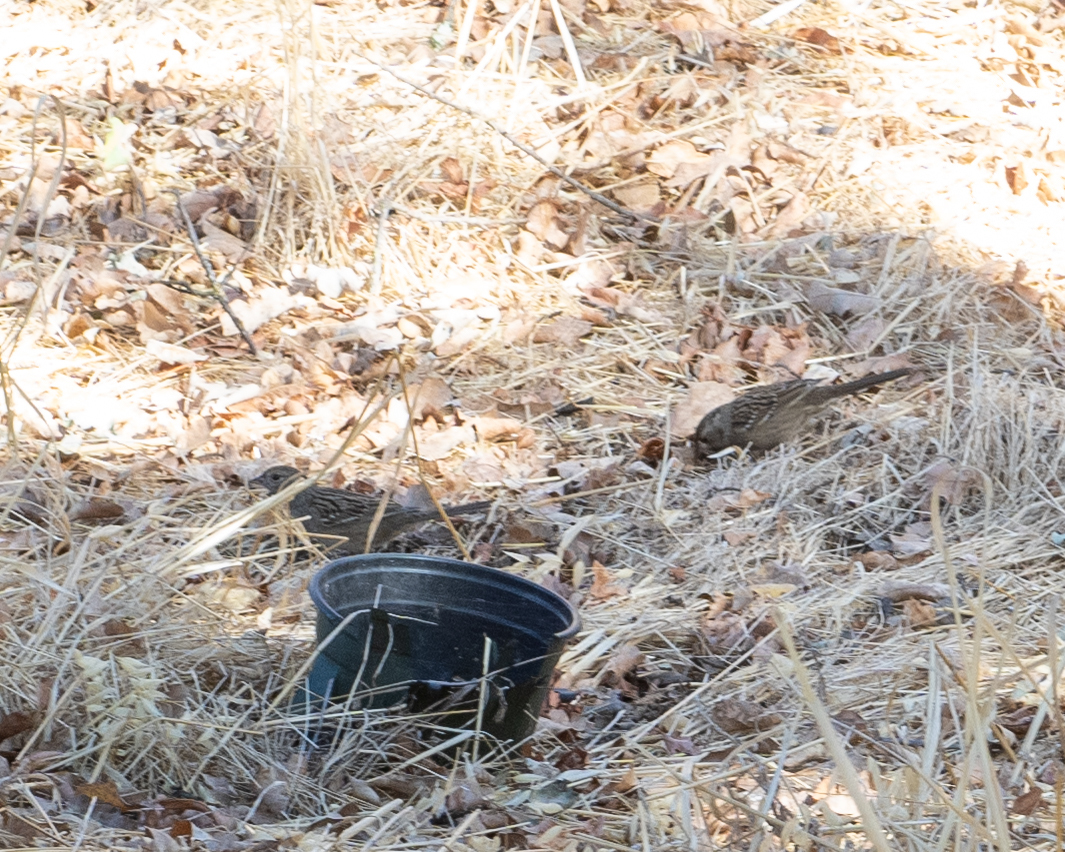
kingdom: Animalia
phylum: Chordata
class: Aves
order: Passeriformes
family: Passerellidae
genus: Zonotrichia
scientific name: Zonotrichia atricapilla
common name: Golden-crowned sparrow
